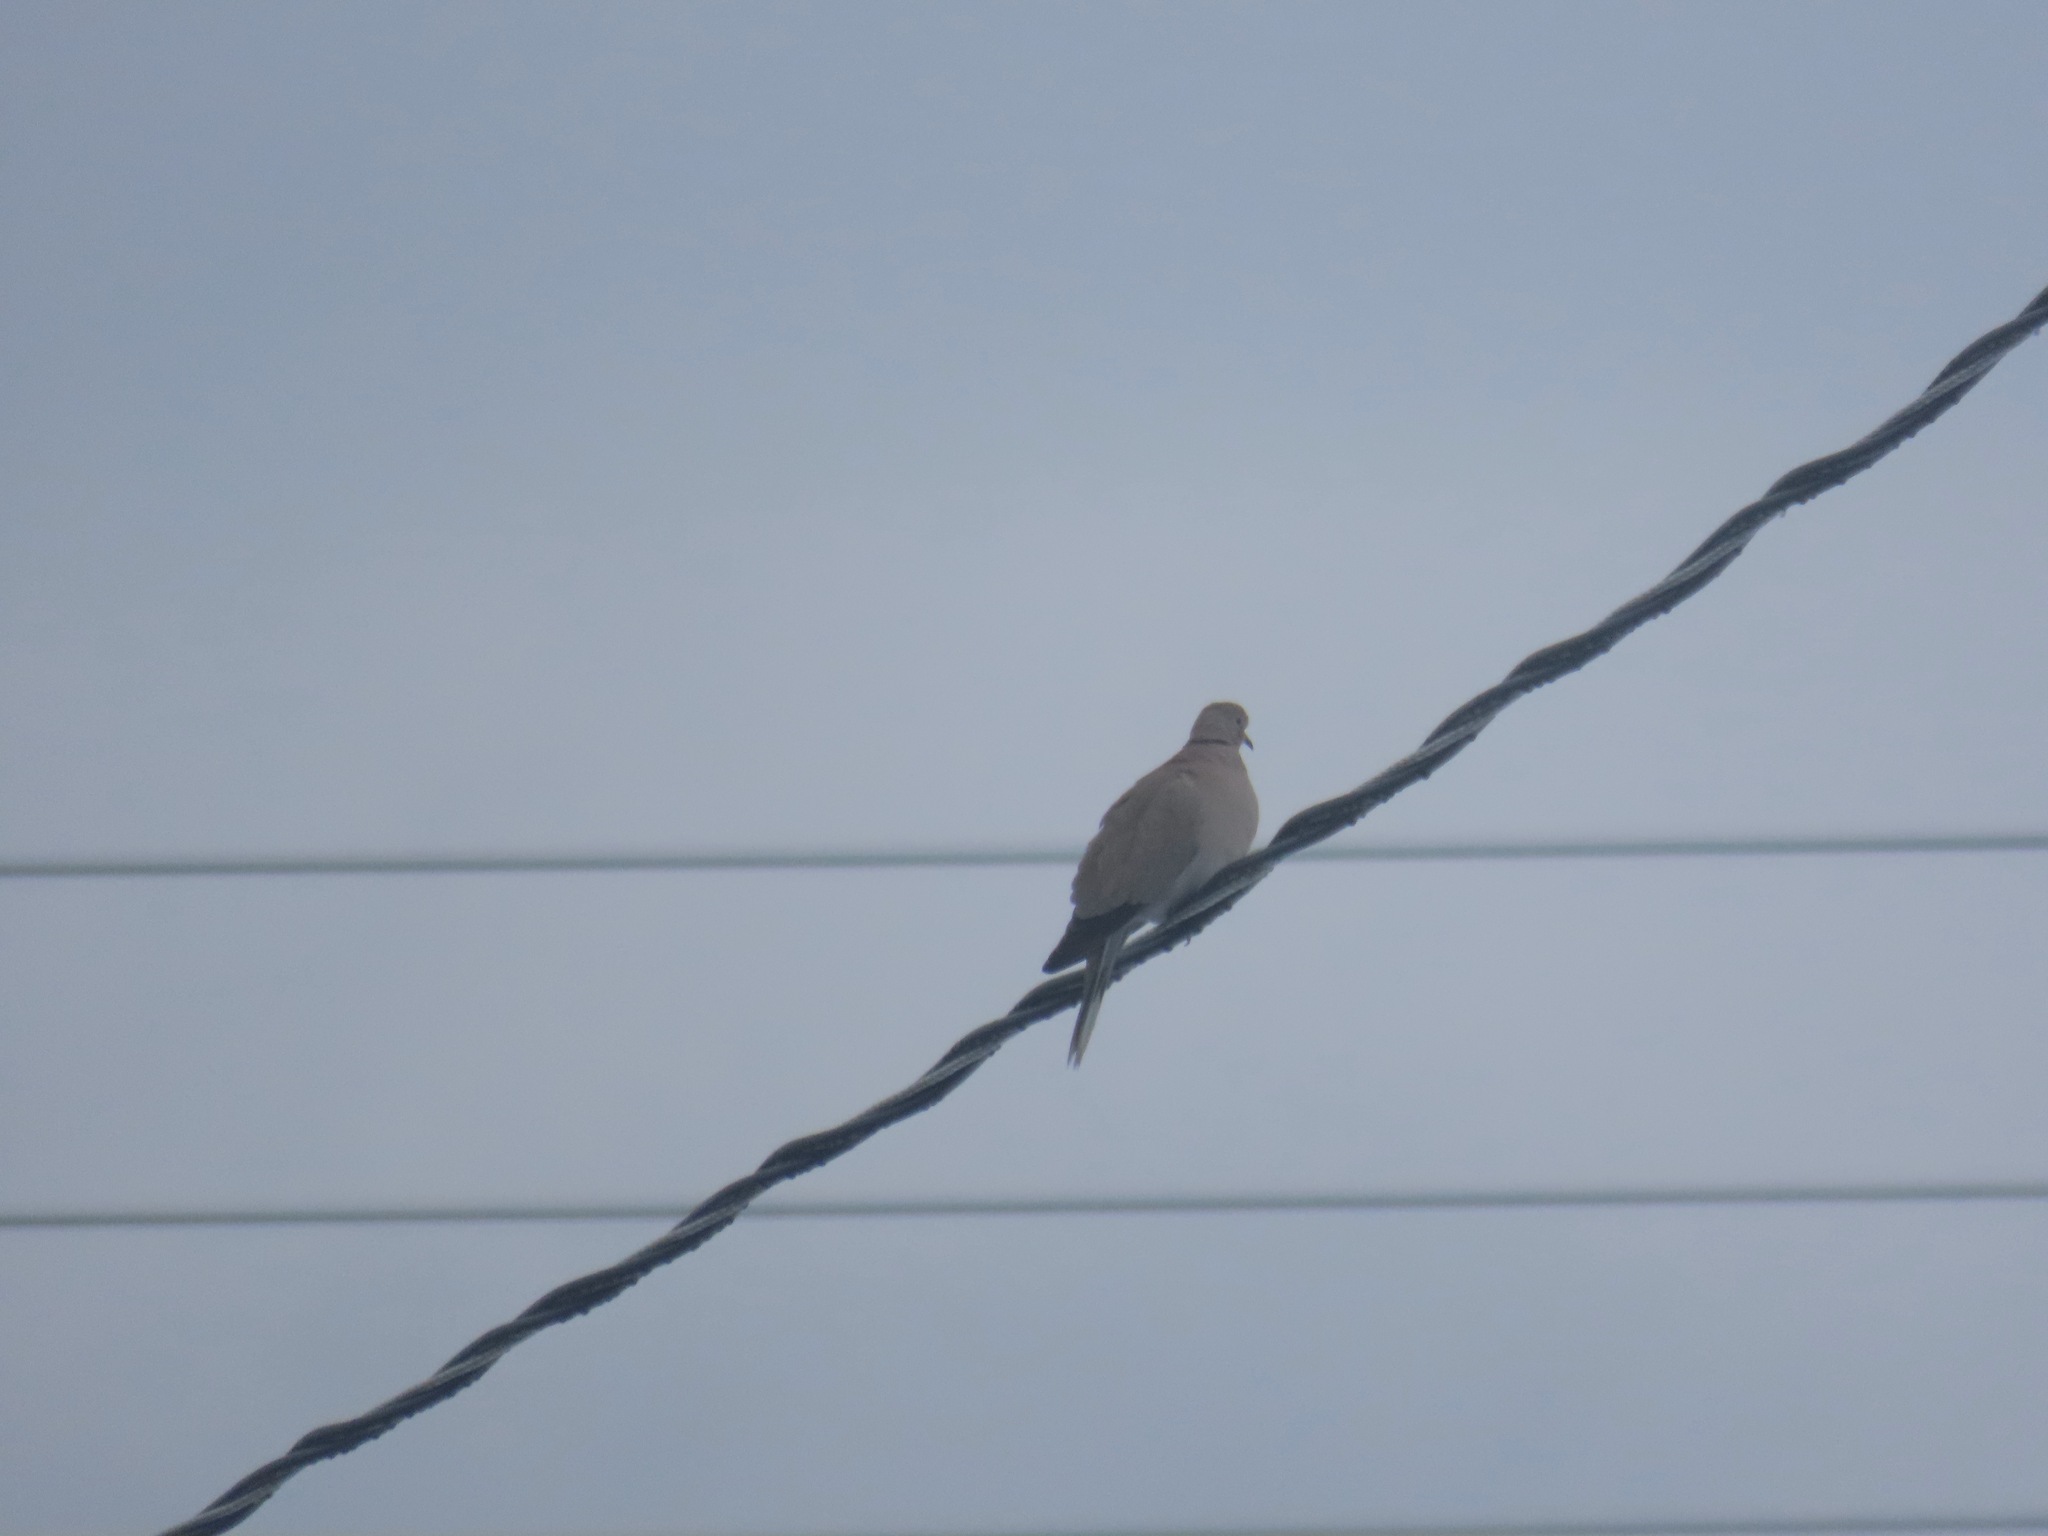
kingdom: Animalia
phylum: Chordata
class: Aves
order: Columbiformes
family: Columbidae
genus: Streptopelia
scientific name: Streptopelia decaocto
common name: Eurasian collared dove
